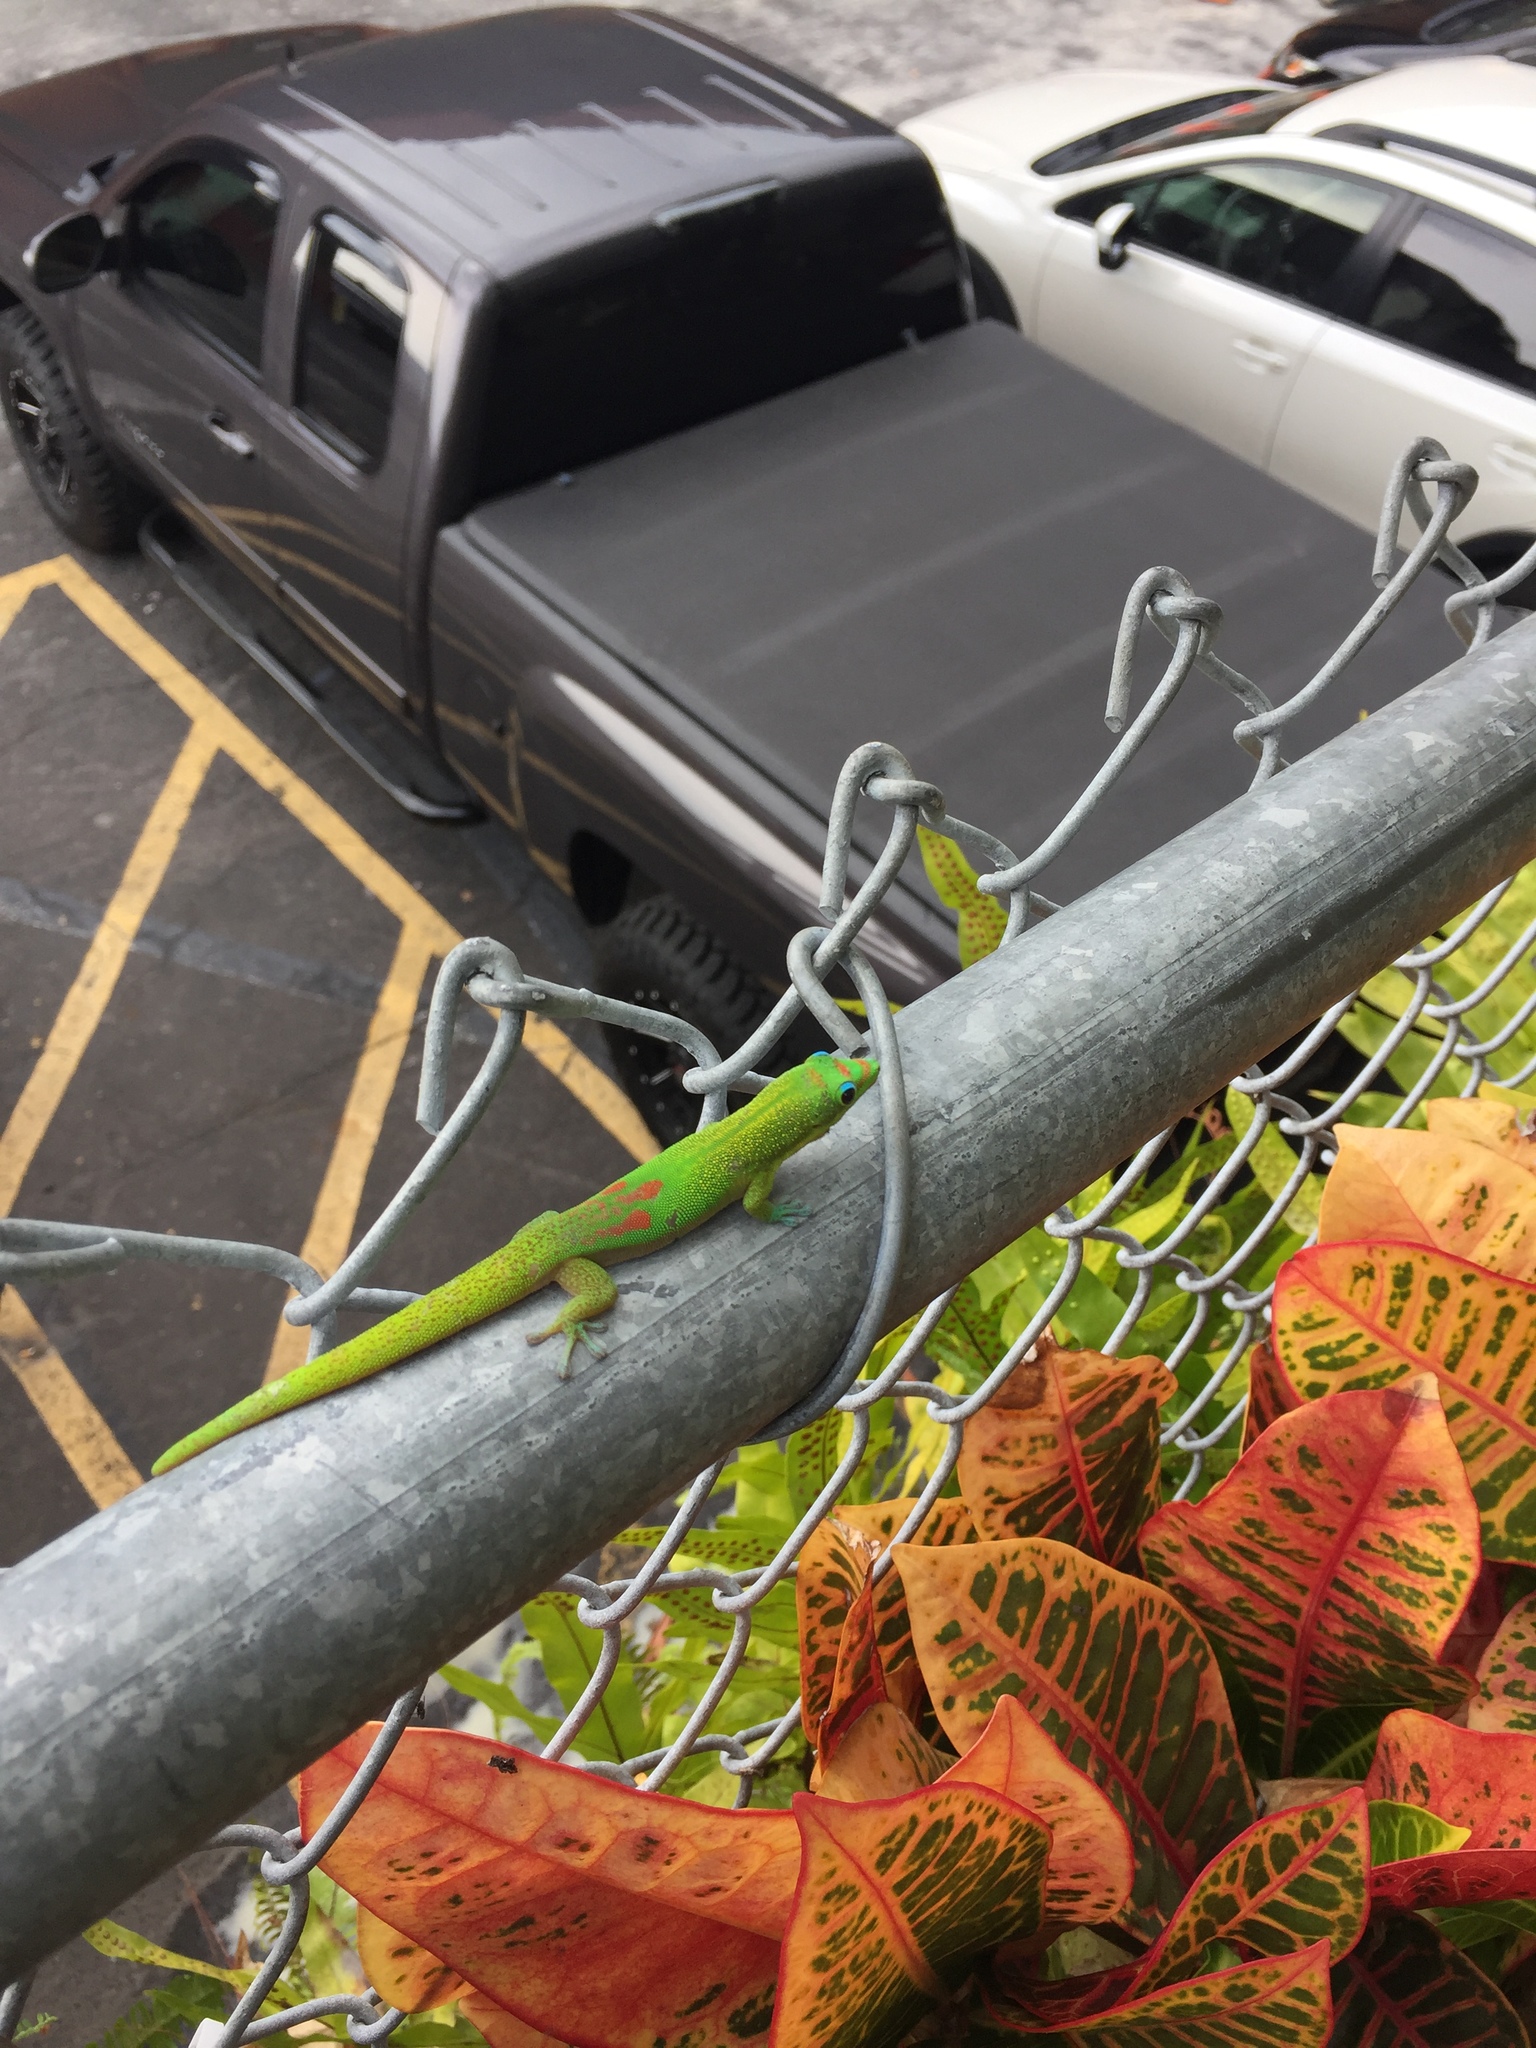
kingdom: Animalia
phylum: Chordata
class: Squamata
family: Gekkonidae
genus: Phelsuma
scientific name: Phelsuma laticauda
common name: Gold dust day gecko
